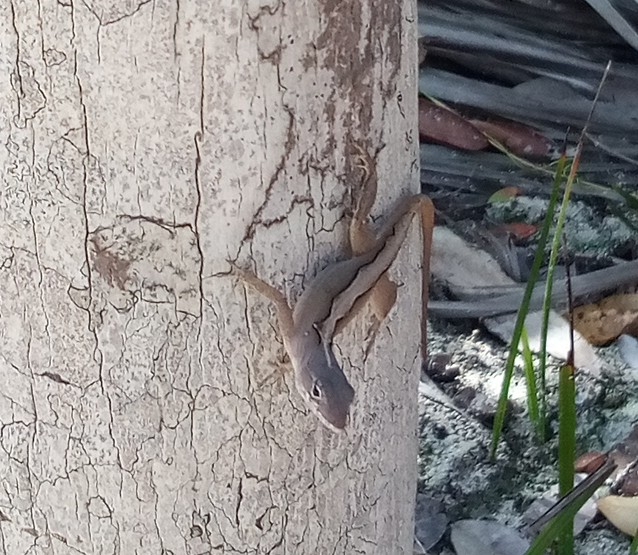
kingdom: Animalia
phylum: Chordata
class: Squamata
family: Dactyloidae
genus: Anolis
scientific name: Anolis sagrei
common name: Brown anole
